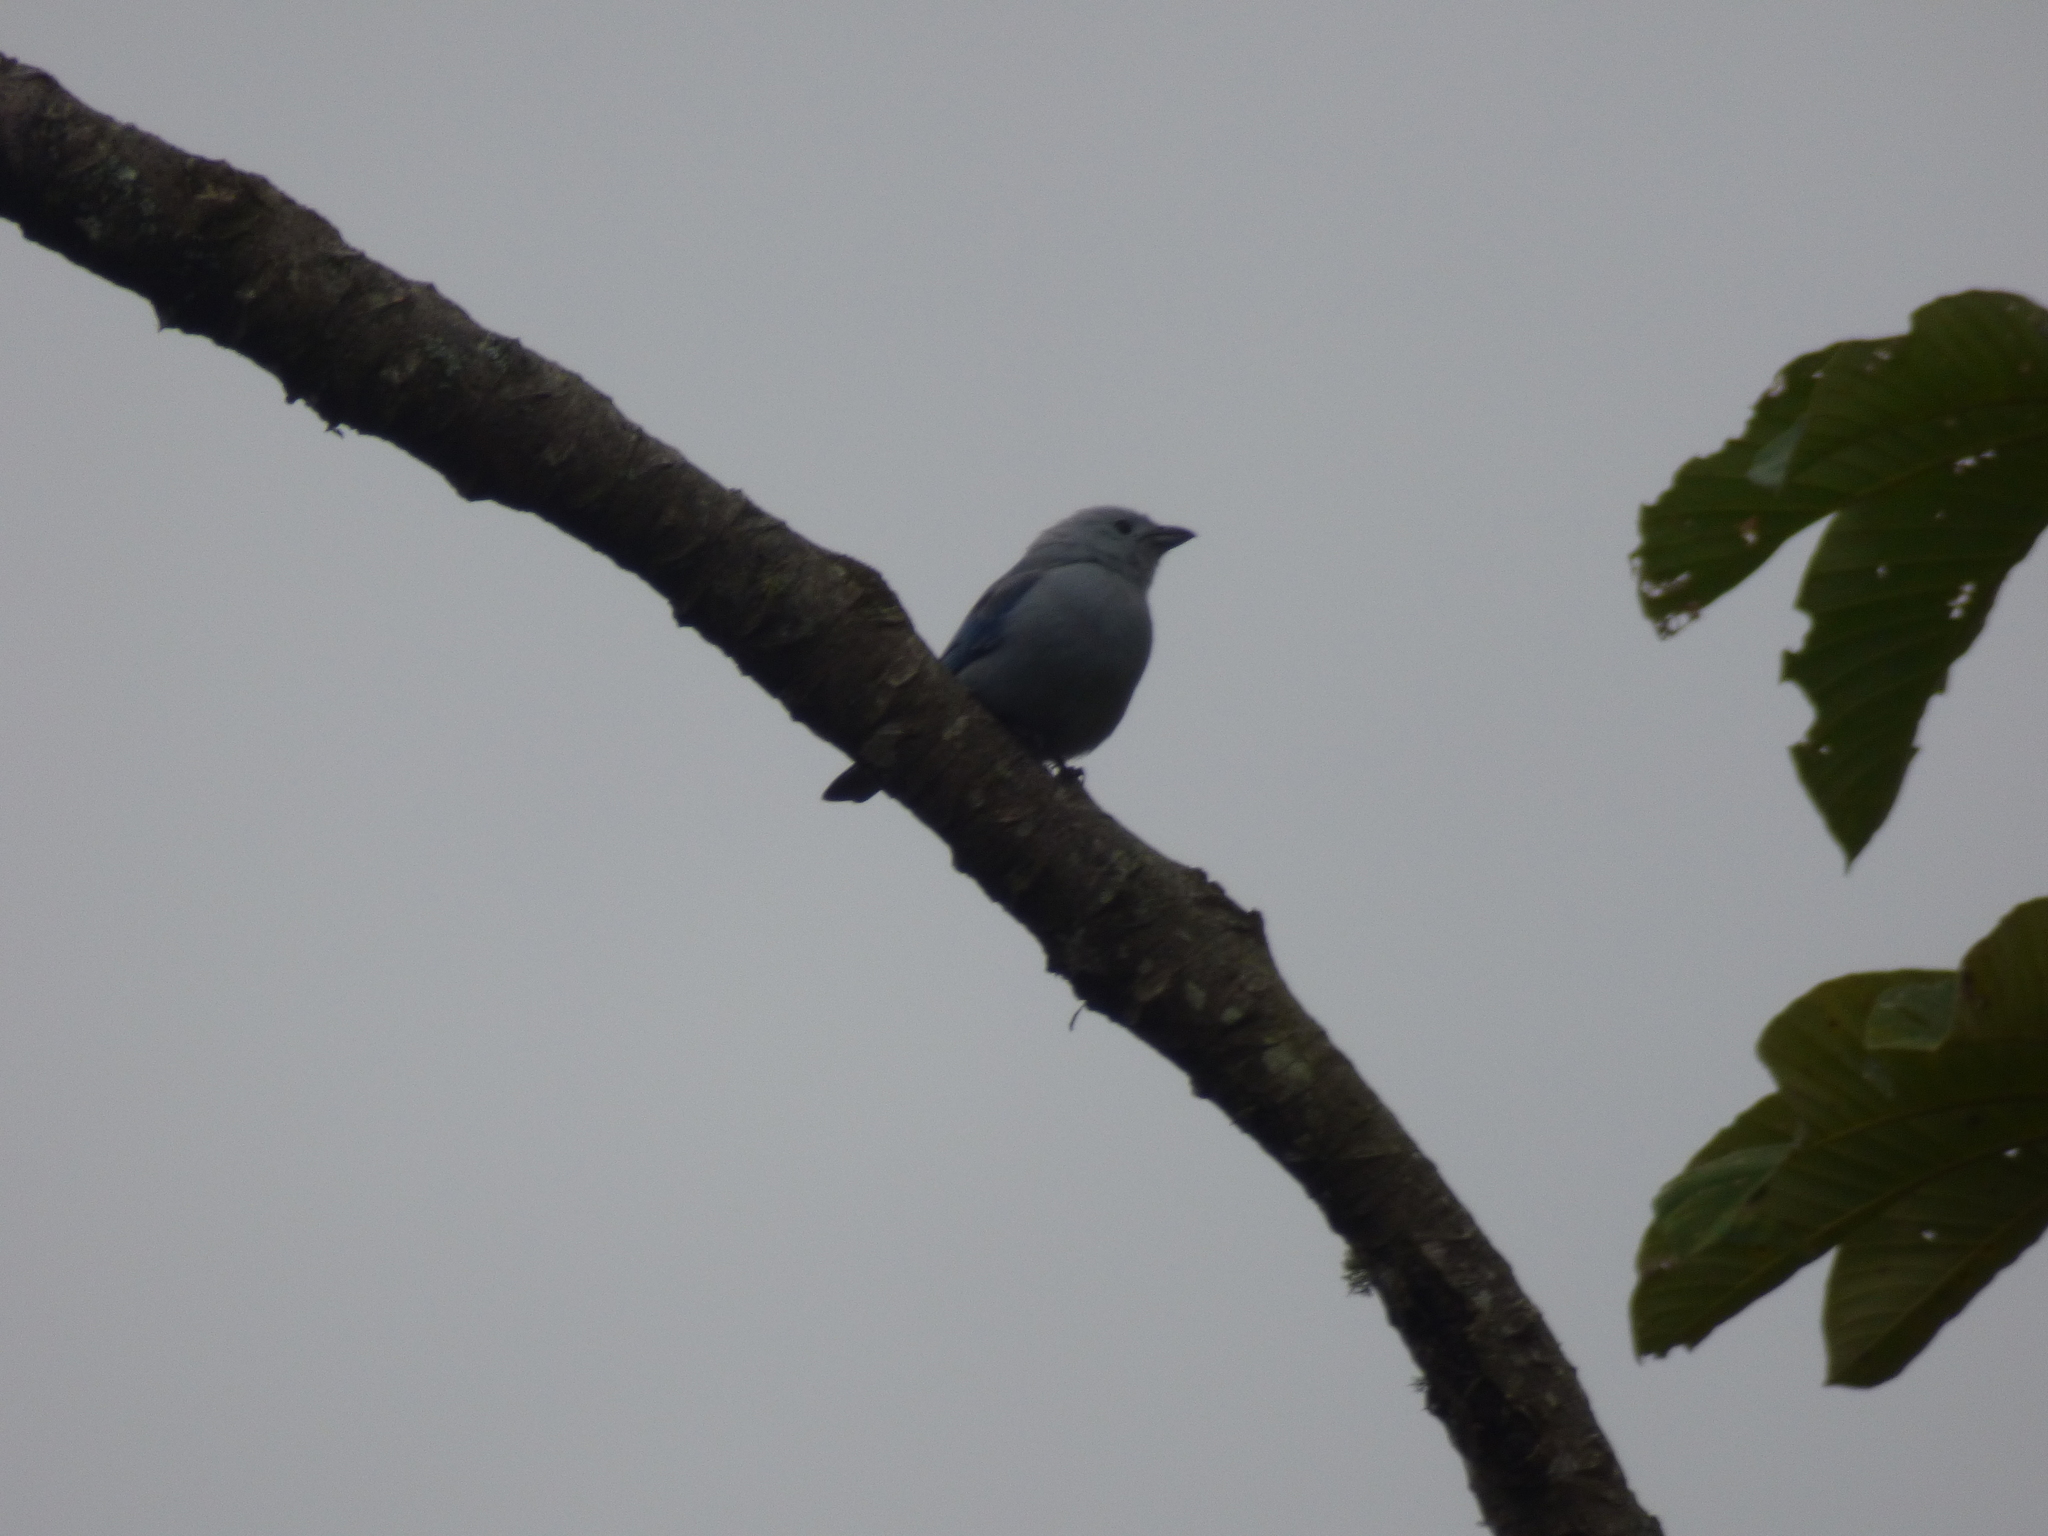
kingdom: Animalia
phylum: Chordata
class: Aves
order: Passeriformes
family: Thraupidae
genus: Thraupis
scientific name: Thraupis episcopus
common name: Blue-grey tanager
